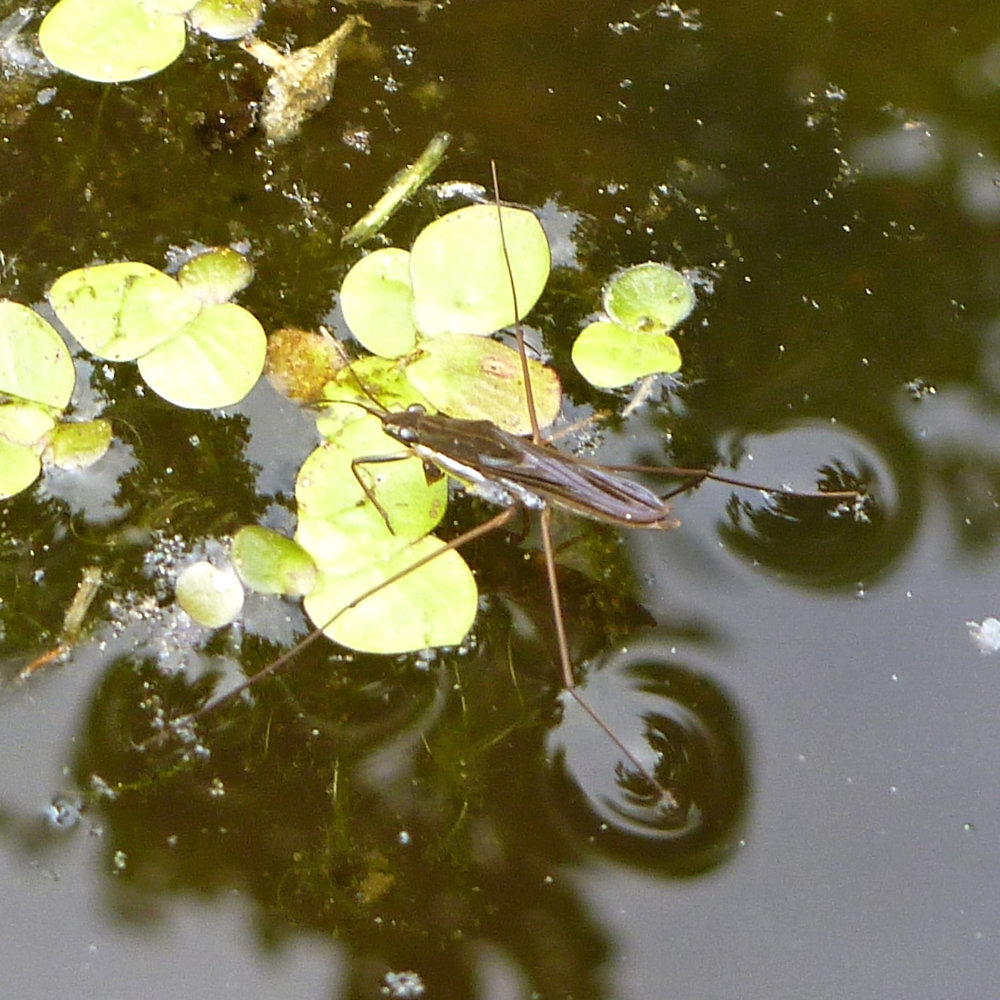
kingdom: Animalia
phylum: Arthropoda
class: Insecta
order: Hemiptera
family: Gerridae
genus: Gerris
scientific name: Gerris
